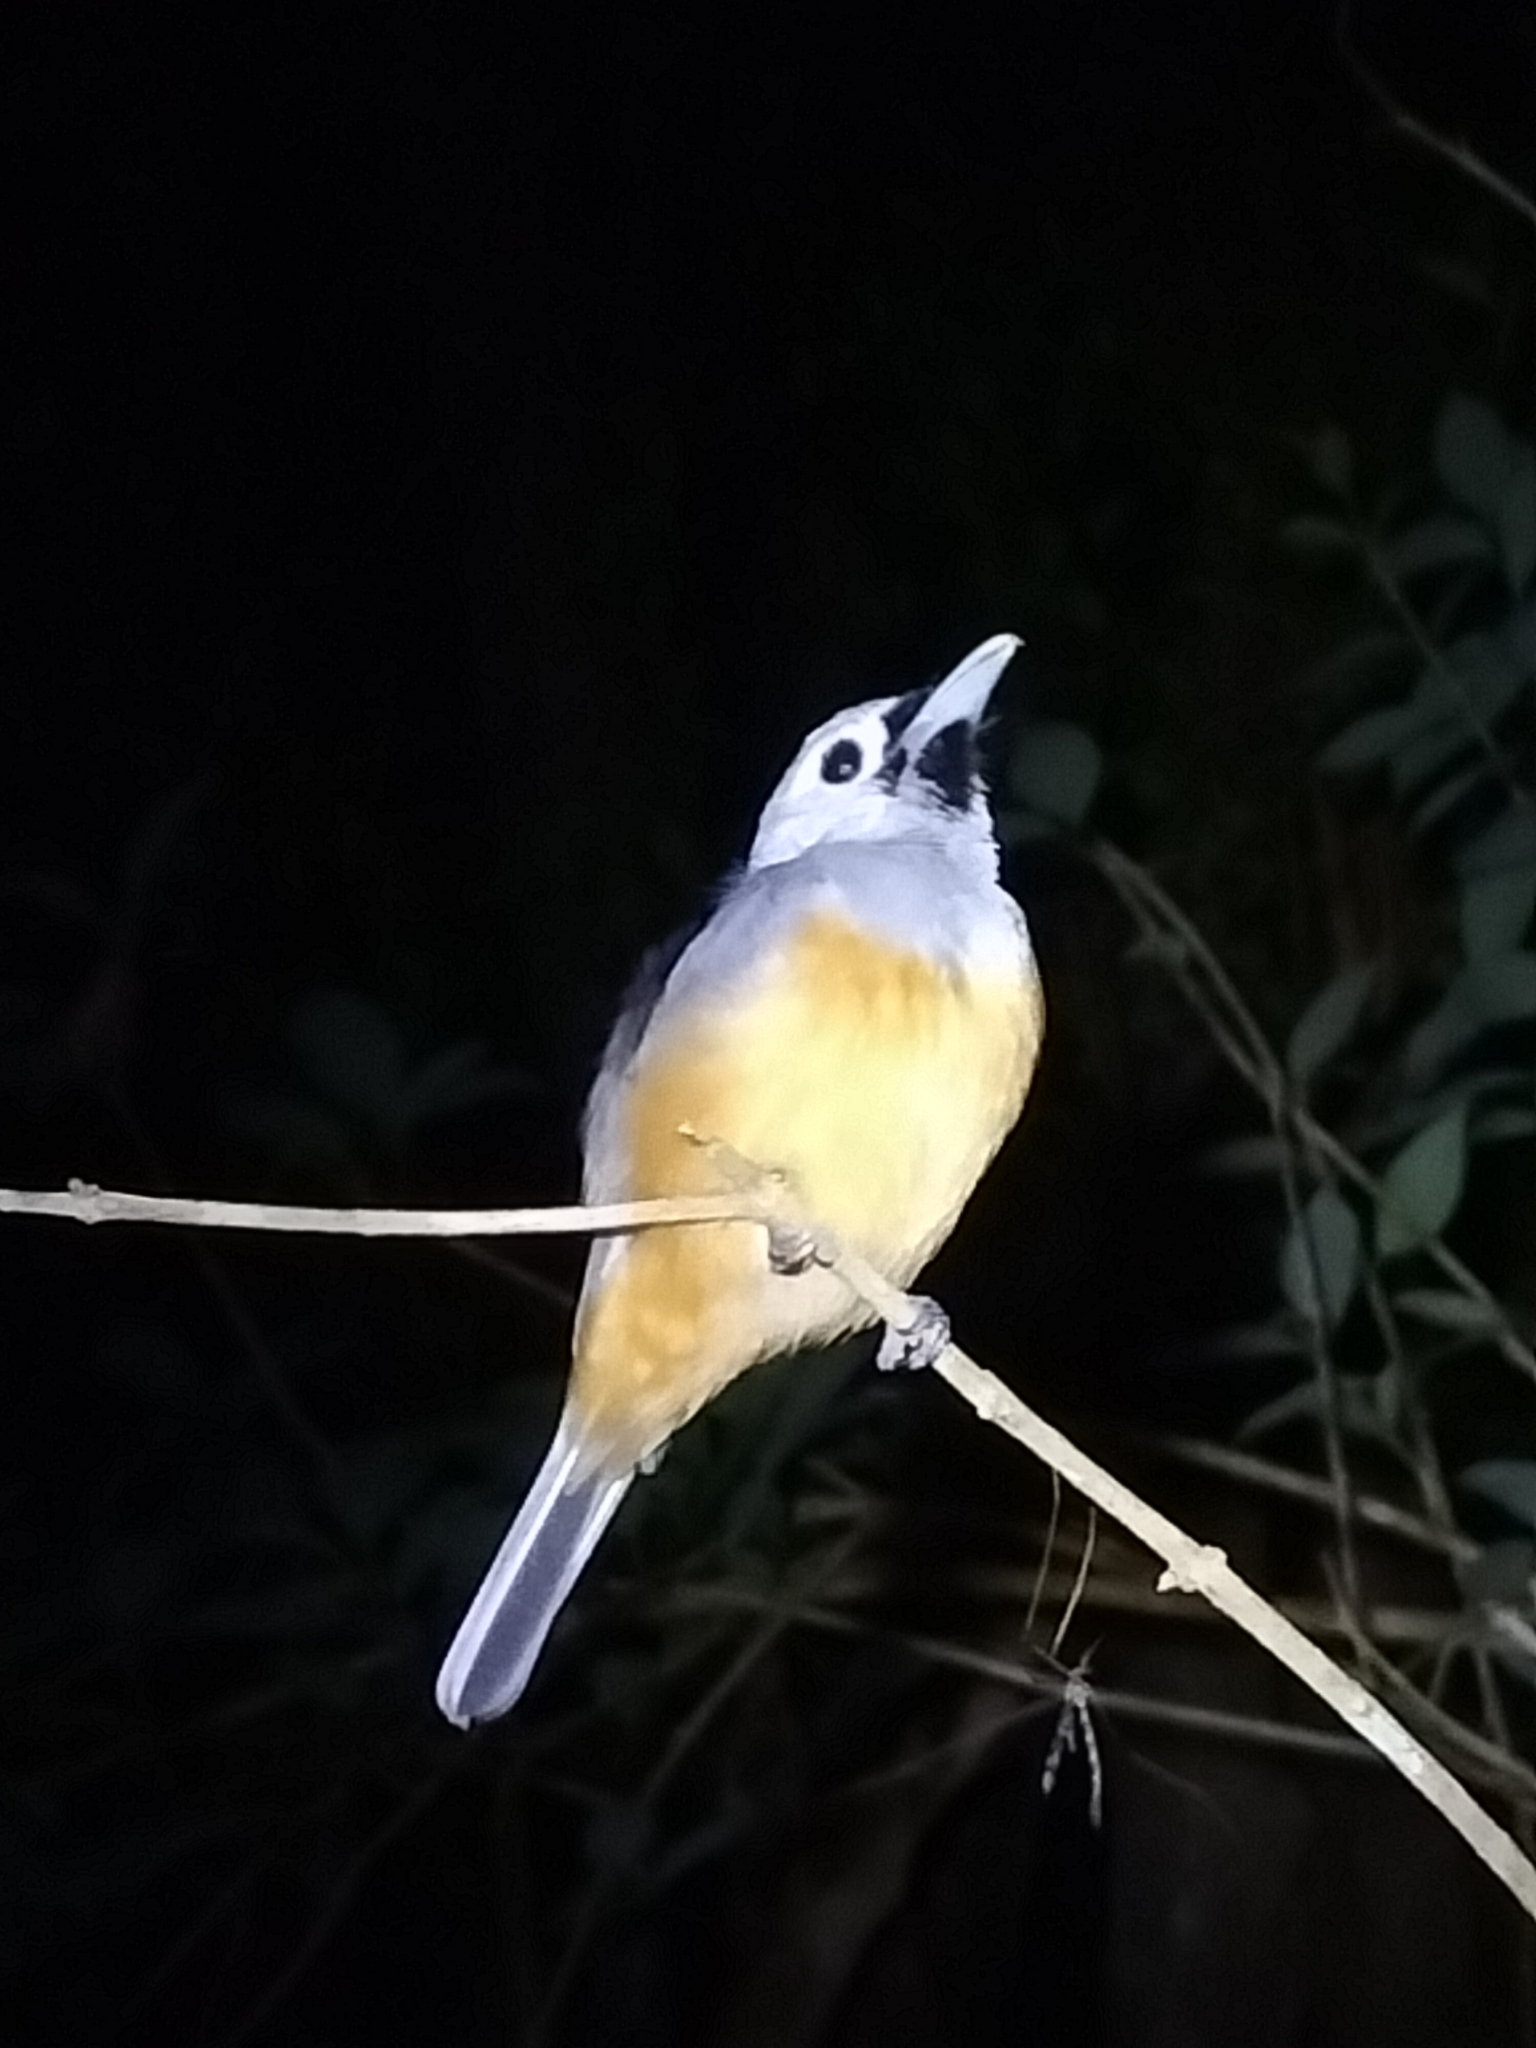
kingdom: Animalia
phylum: Chordata
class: Aves
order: Passeriformes
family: Monarchidae
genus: Monarcha
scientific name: Monarcha melanopsis
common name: Black-faced monarch
